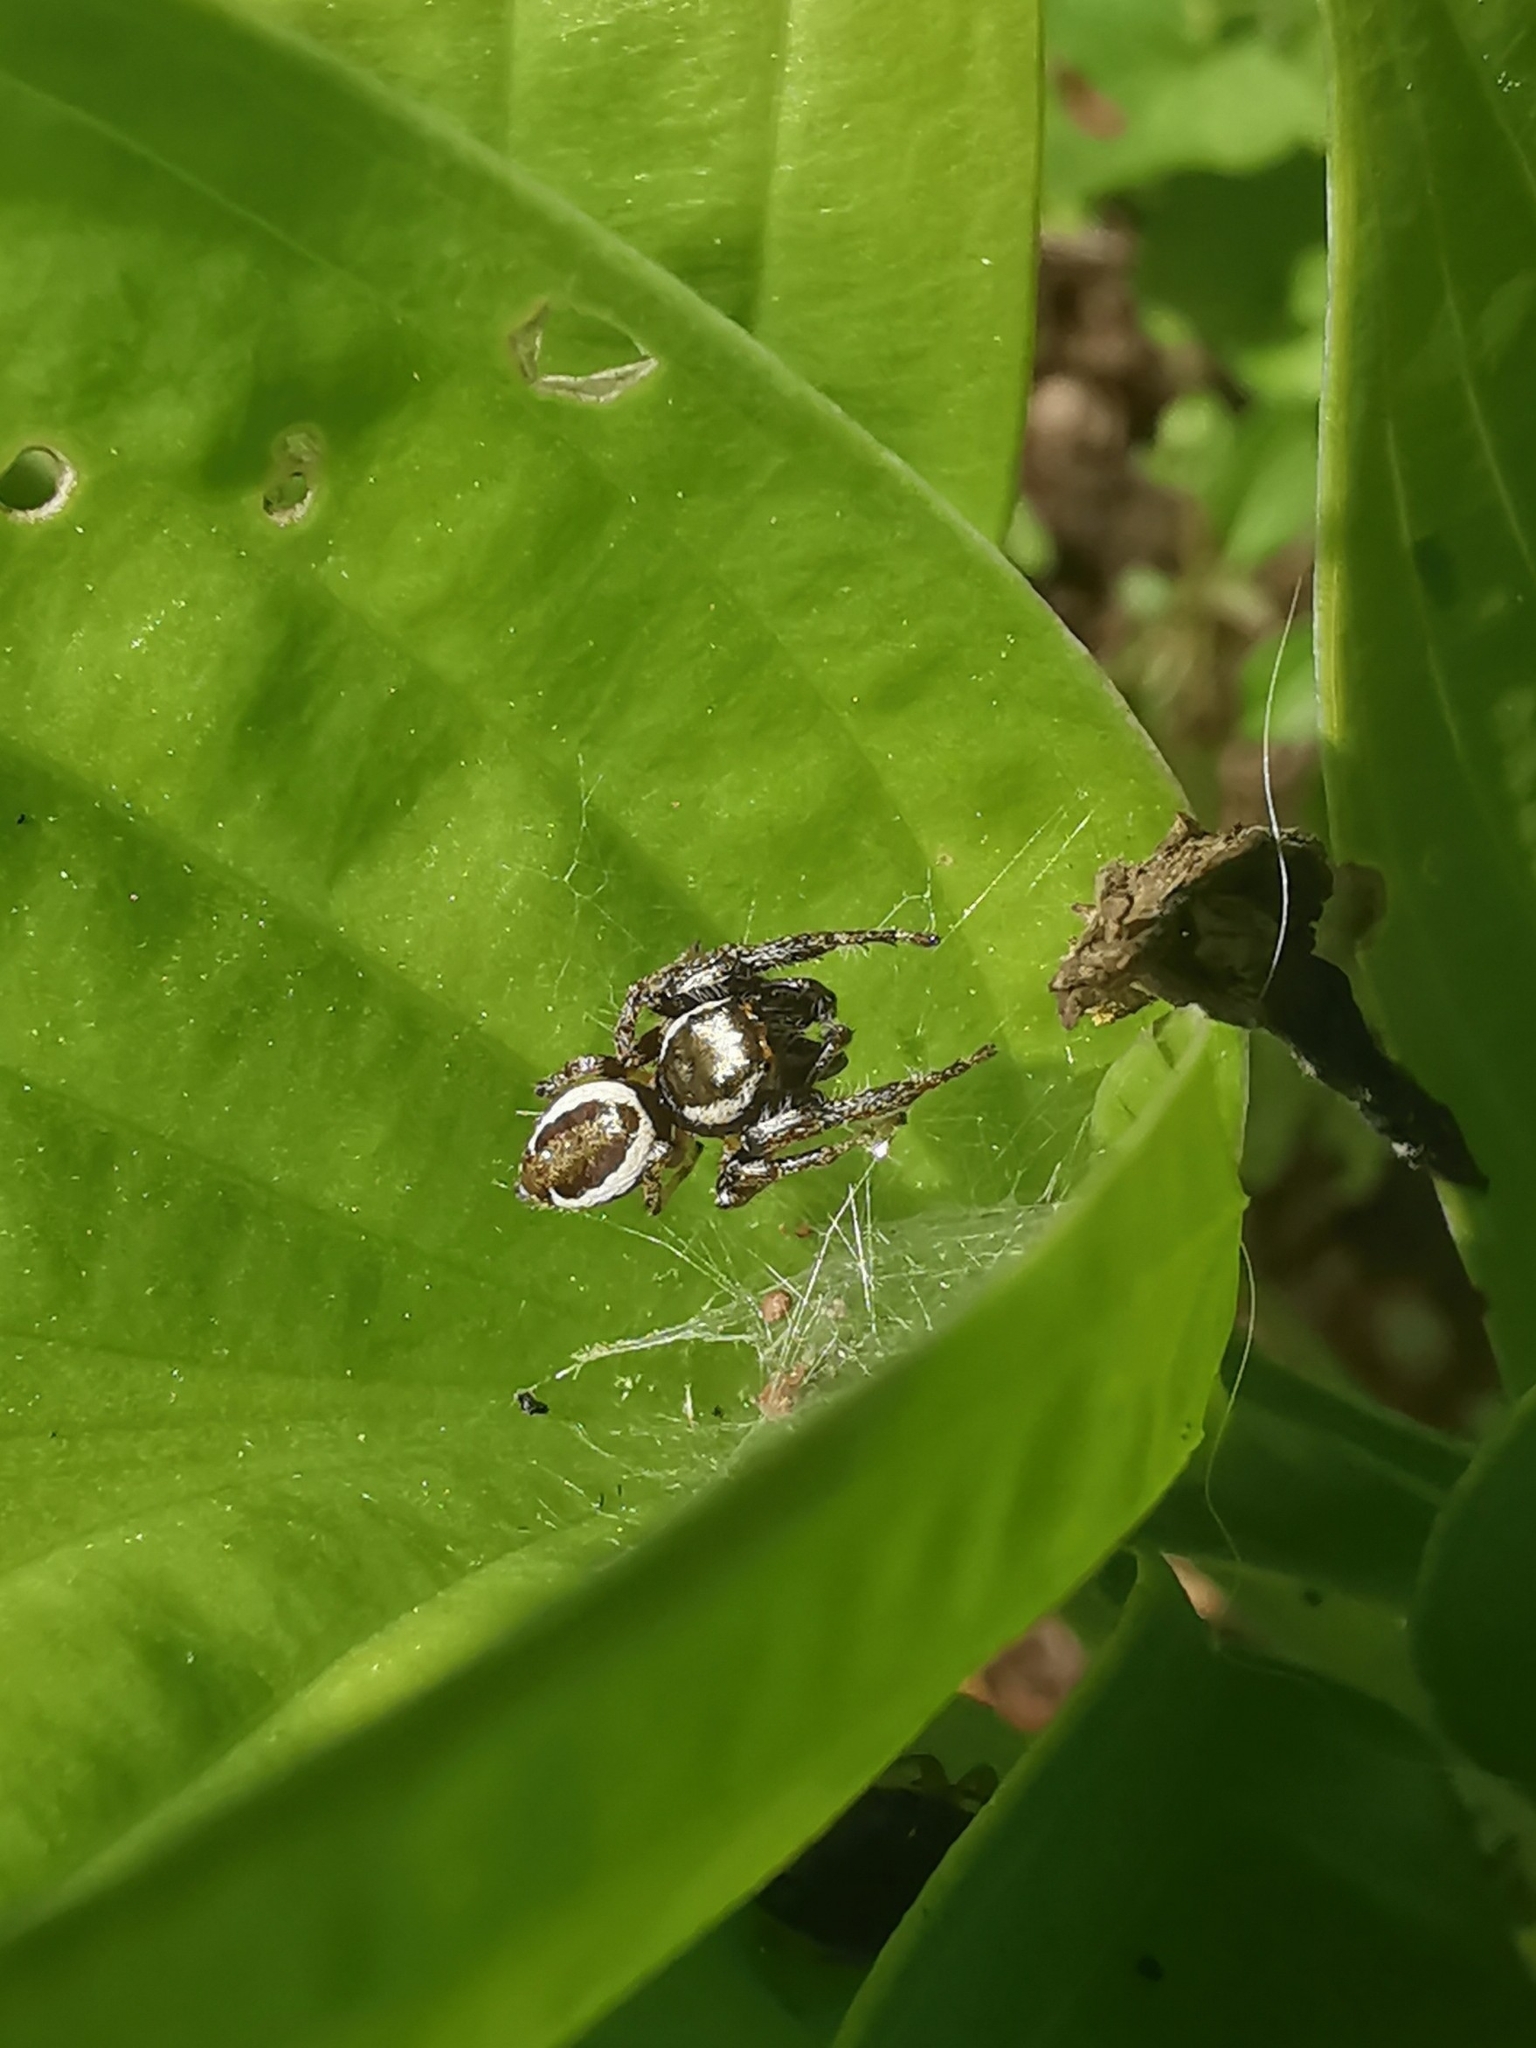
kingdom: Animalia
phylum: Arthropoda
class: Arachnida
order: Araneae
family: Salticidae
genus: Eris
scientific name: Eris militaris
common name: Bronze jumper
